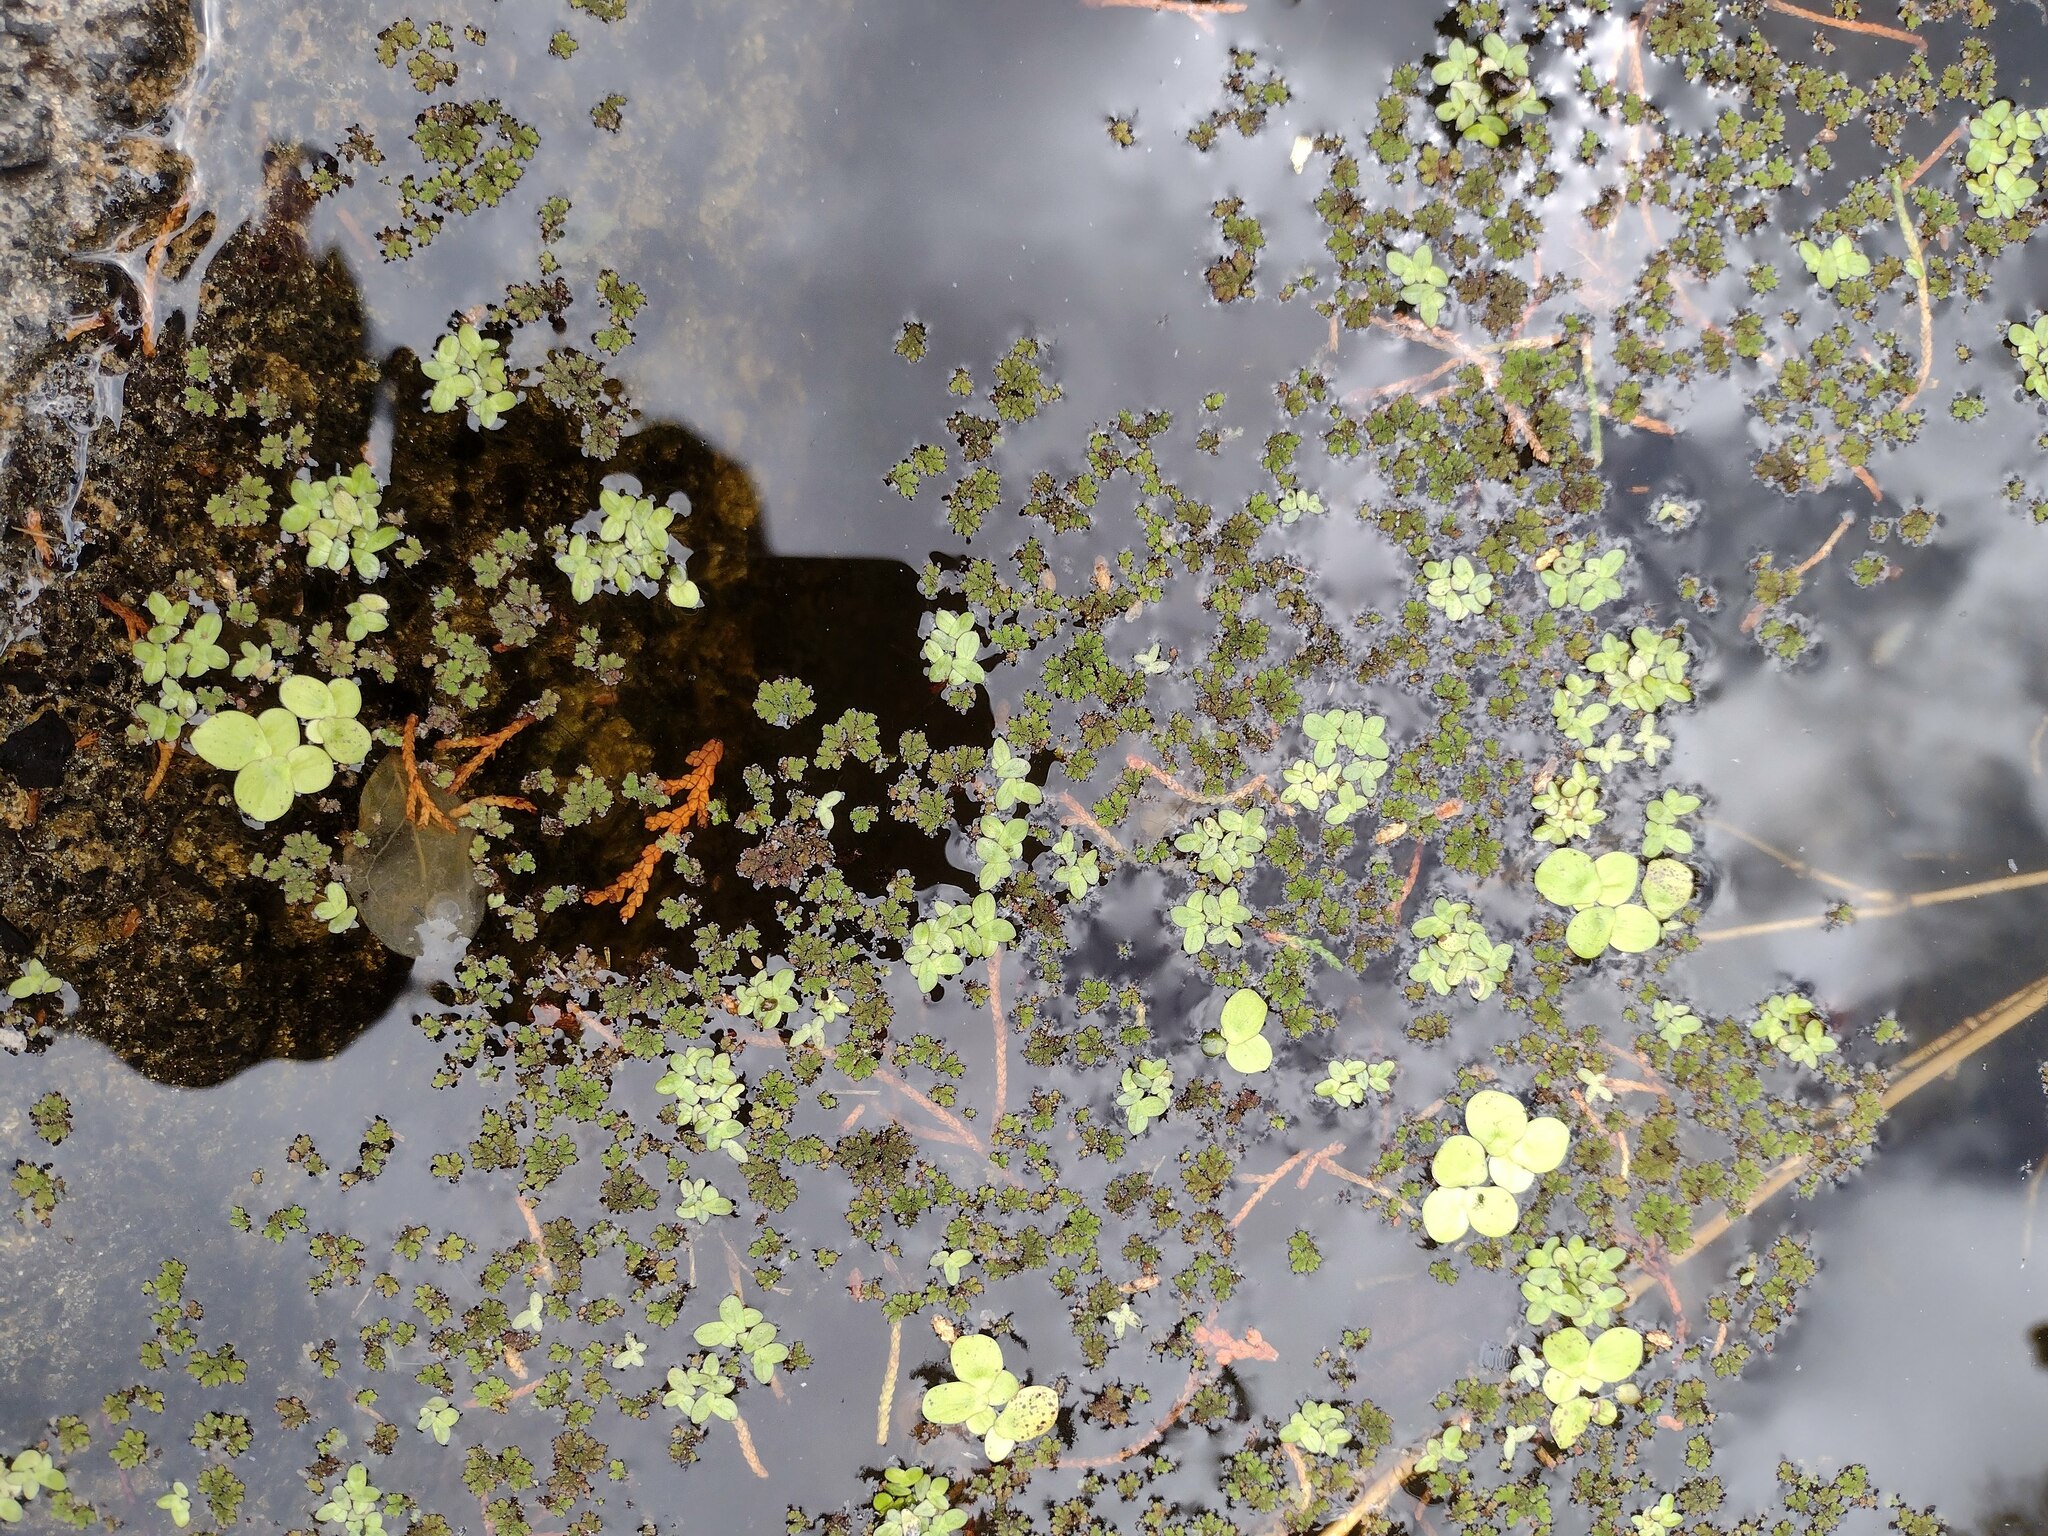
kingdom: Plantae
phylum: Tracheophyta
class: Liliopsida
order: Alismatales
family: Araceae
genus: Spirodela
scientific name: Spirodela punctata
